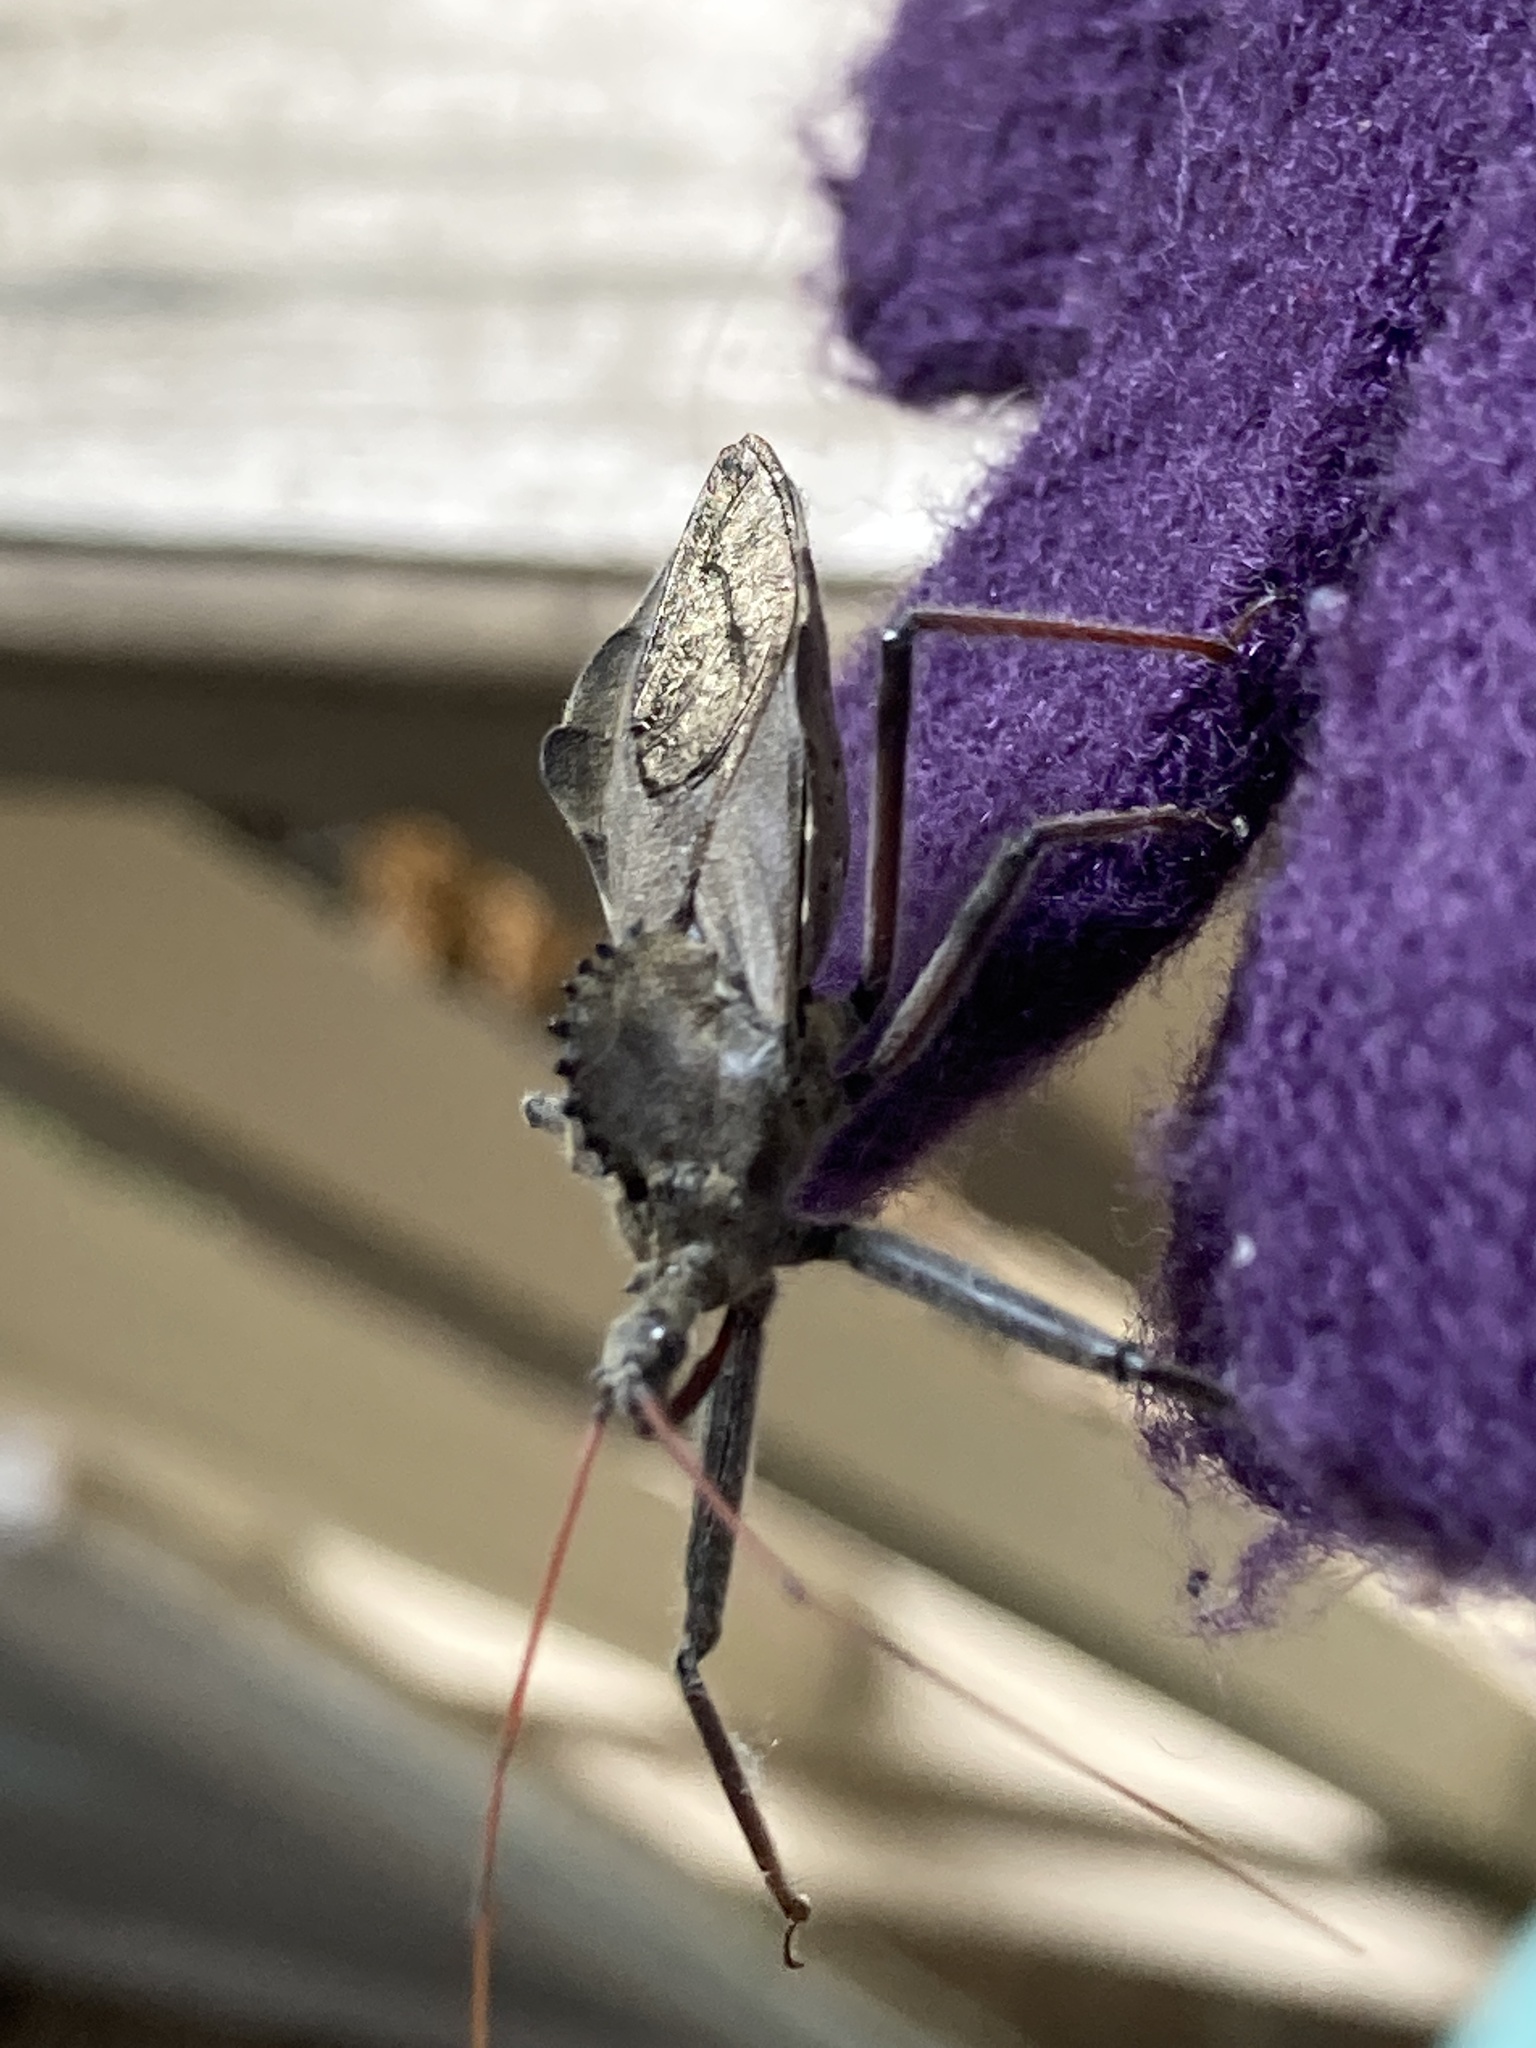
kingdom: Animalia
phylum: Arthropoda
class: Insecta
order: Hemiptera
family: Reduviidae
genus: Arilus
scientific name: Arilus cristatus
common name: North american wheel bug
